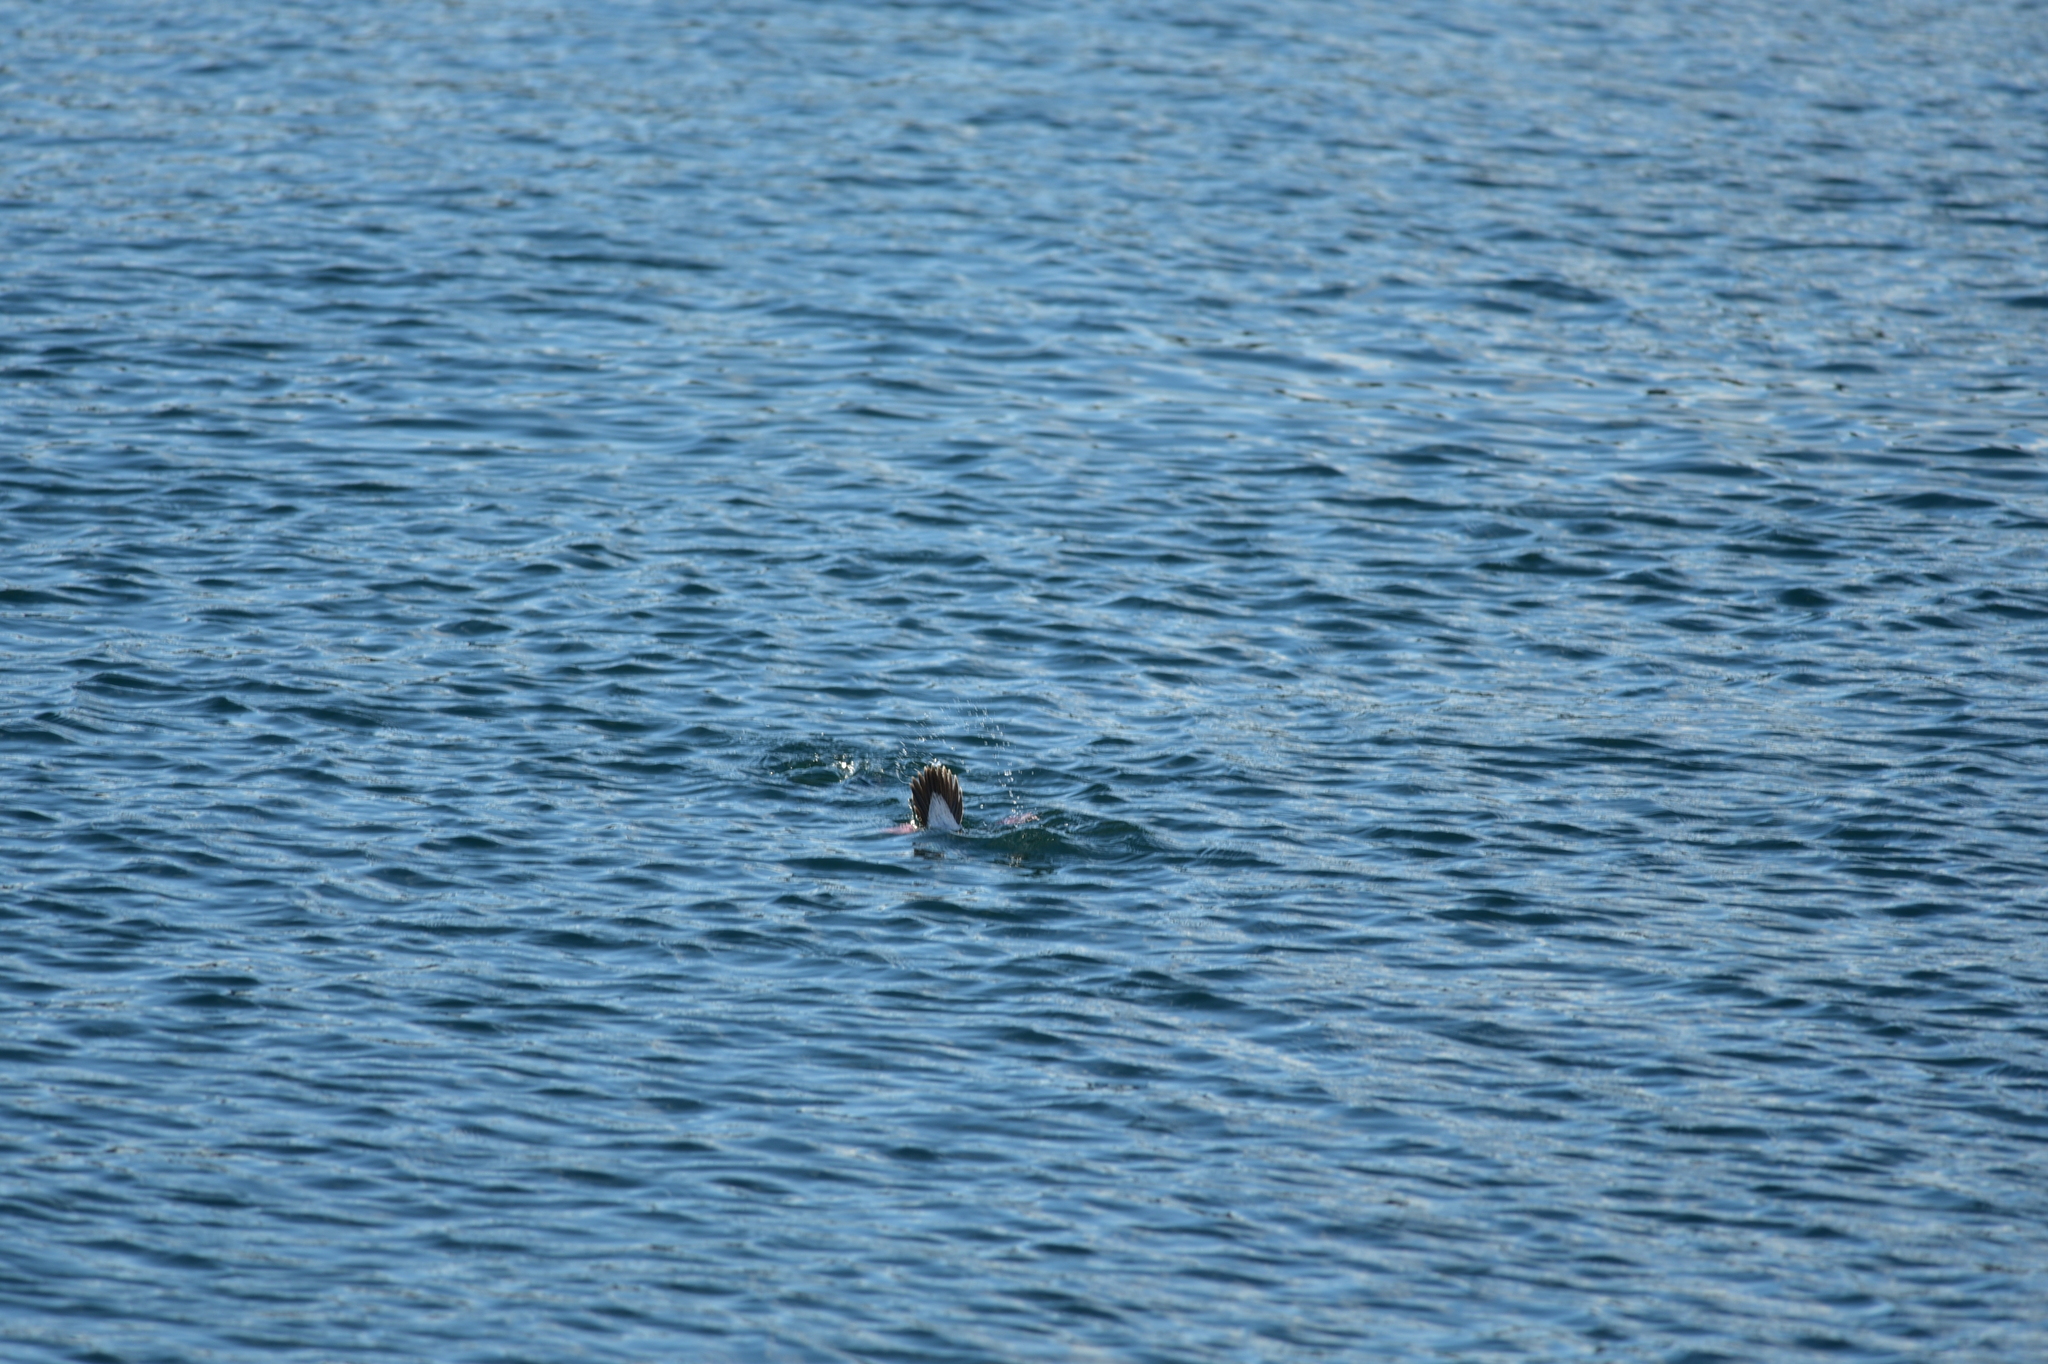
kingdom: Animalia
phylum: Chordata
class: Aves
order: Anseriformes
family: Anatidae
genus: Bucephala
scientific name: Bucephala albeola
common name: Bufflehead
